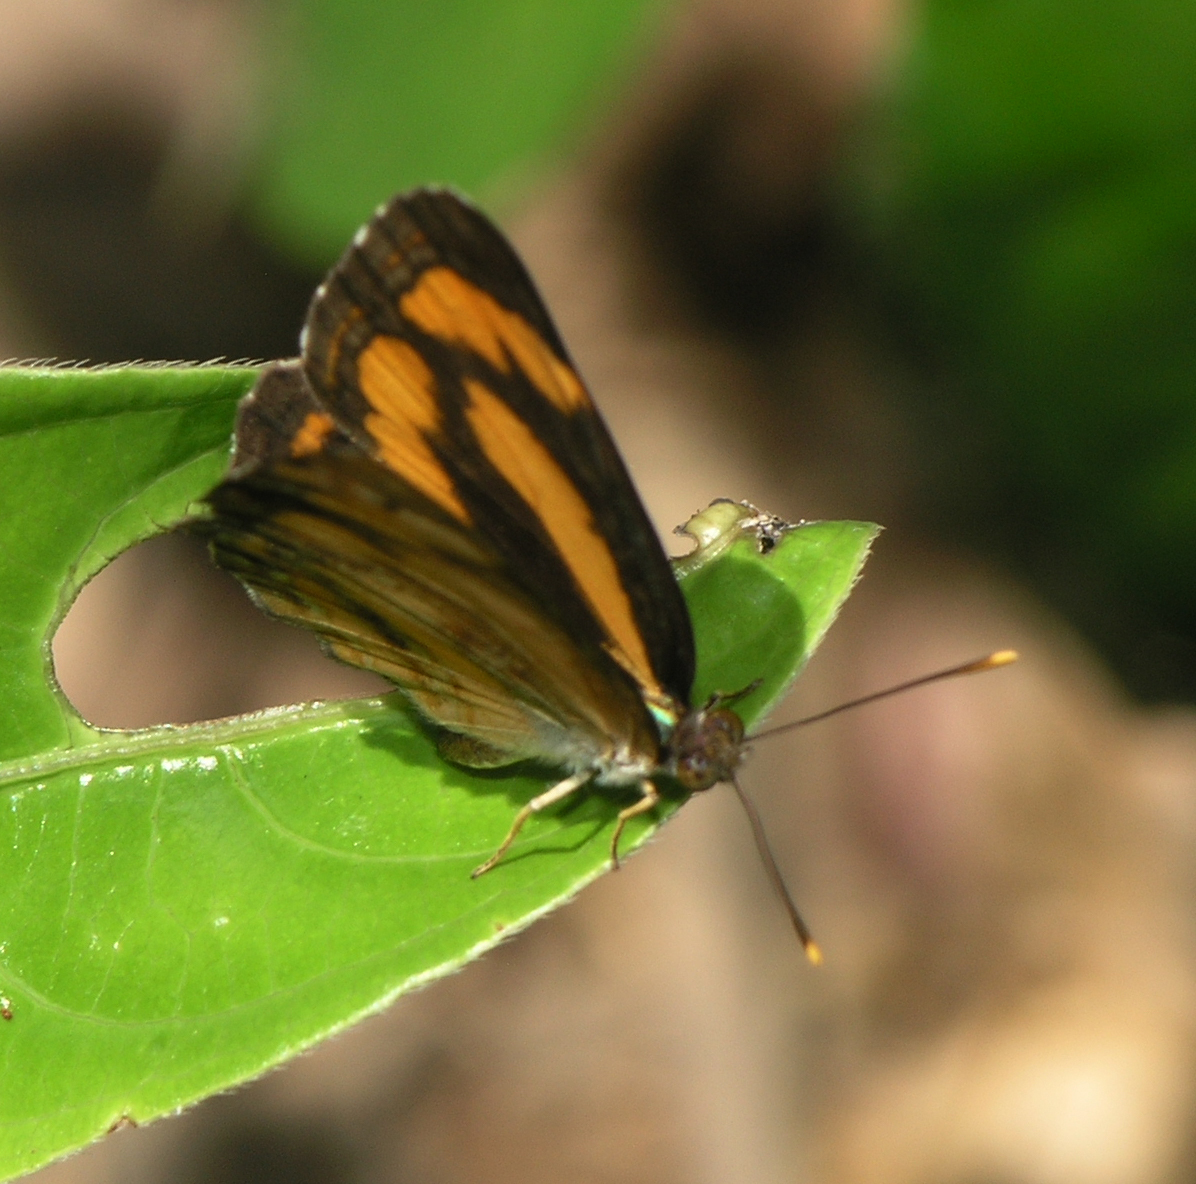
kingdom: Animalia
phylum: Arthropoda
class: Insecta
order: Lepidoptera
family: Nymphalidae
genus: Pantoporia
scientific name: Pantoporia hordonia
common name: Common lascar
